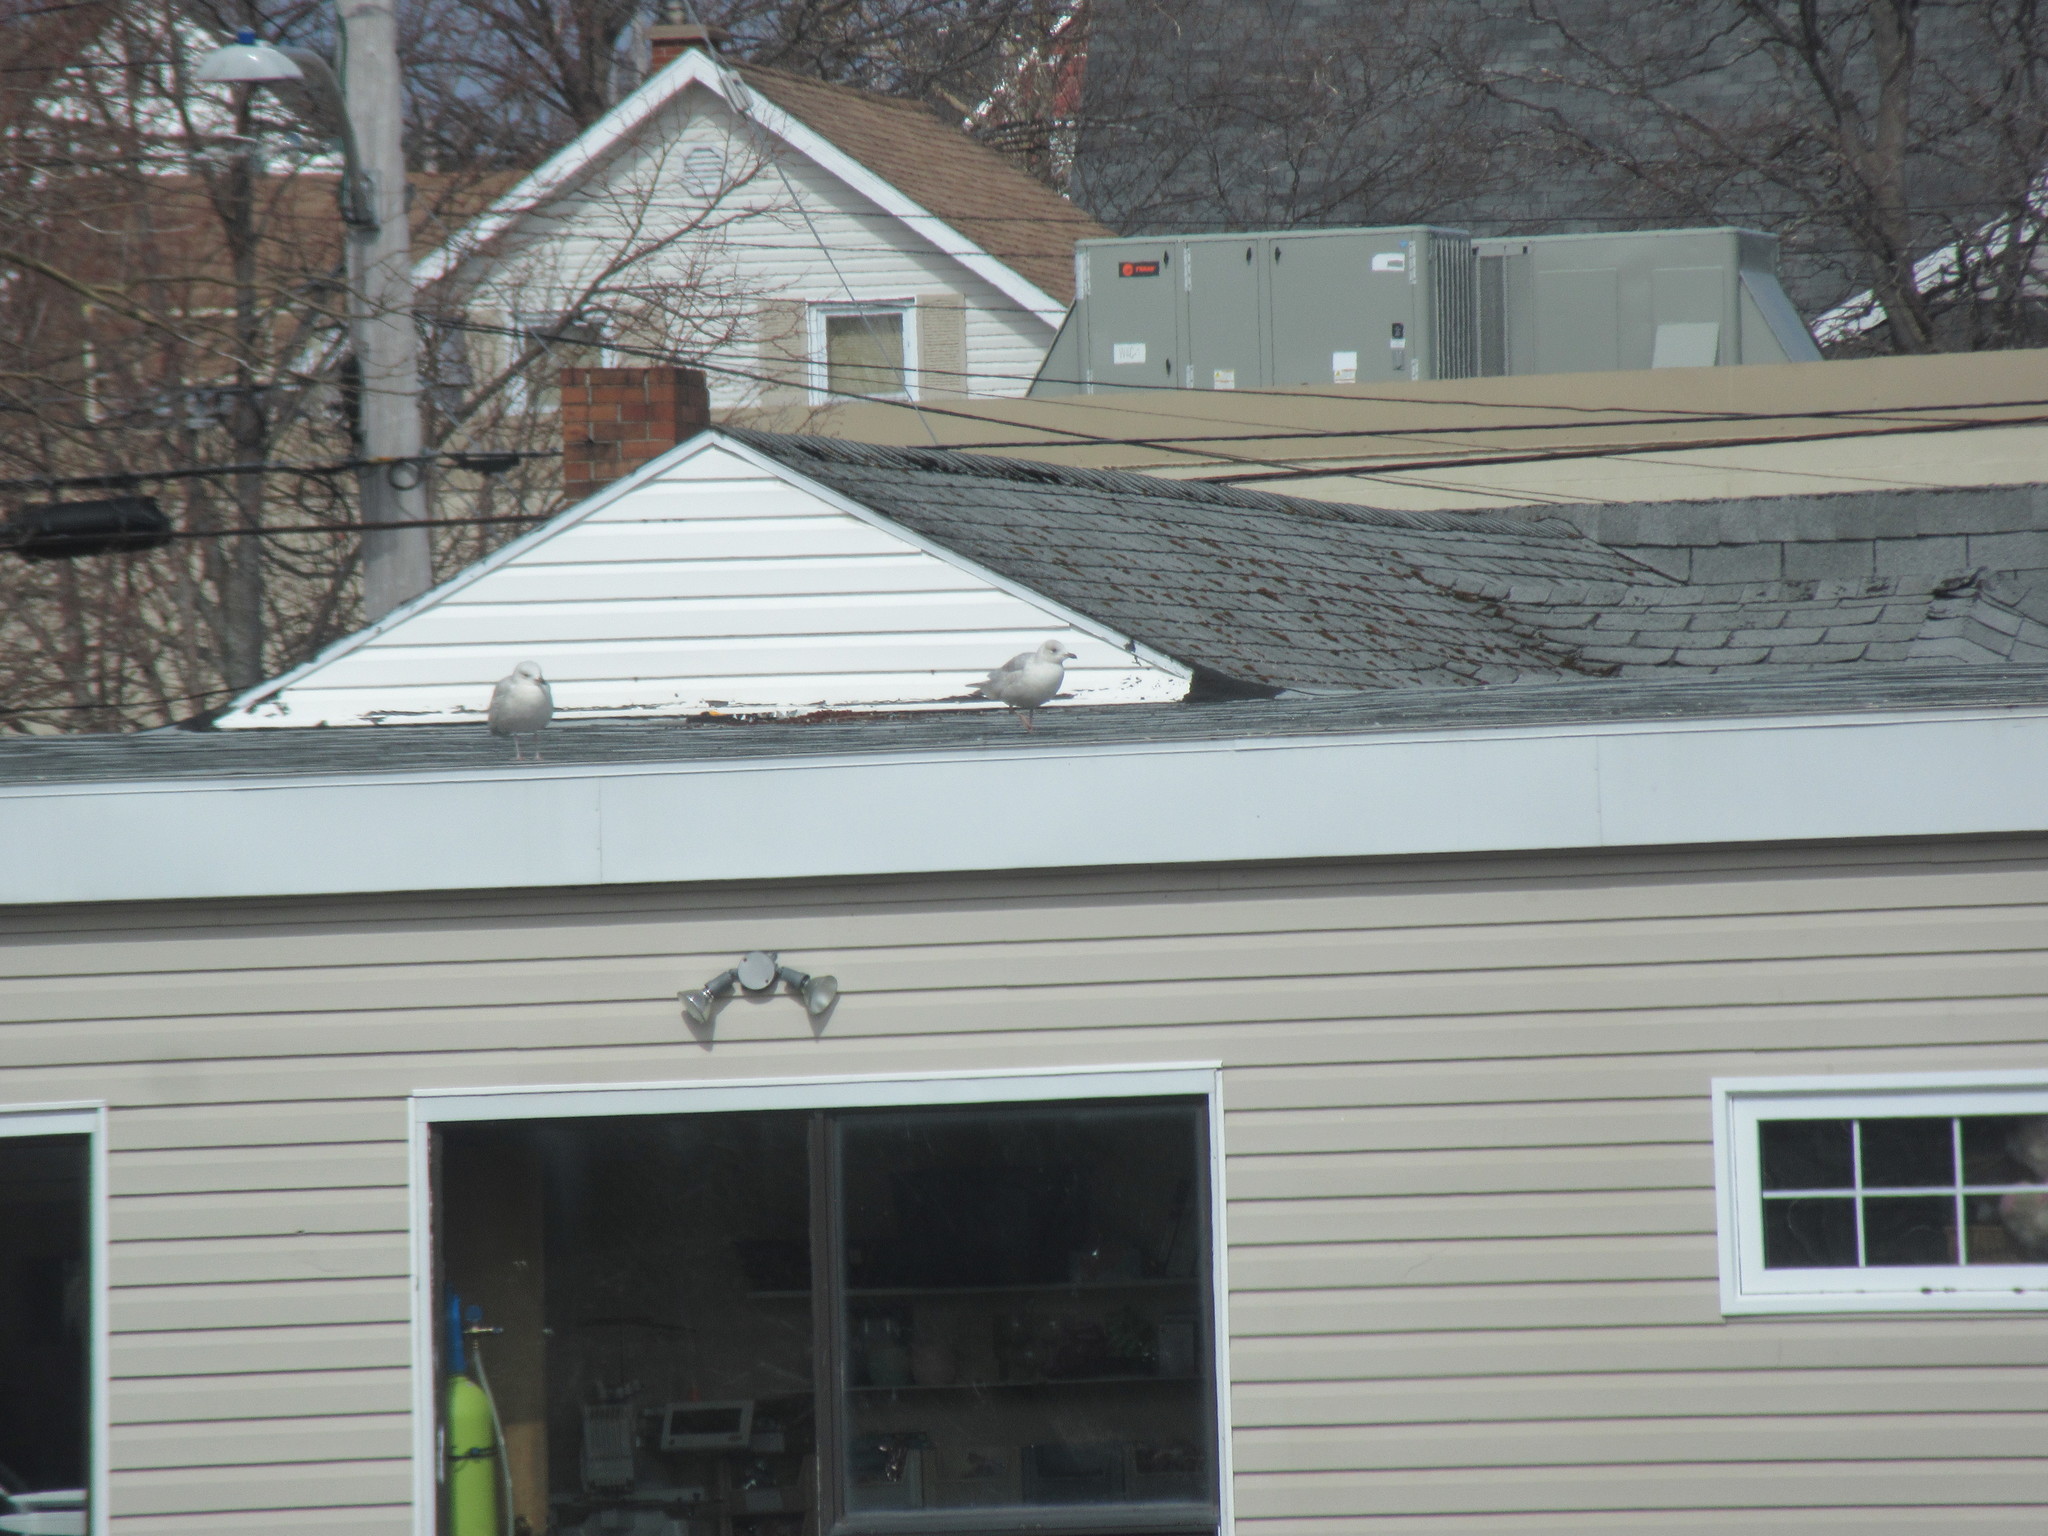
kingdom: Animalia
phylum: Chordata
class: Aves
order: Charadriiformes
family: Laridae
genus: Larus
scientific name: Larus glaucoides
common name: Iceland gull
